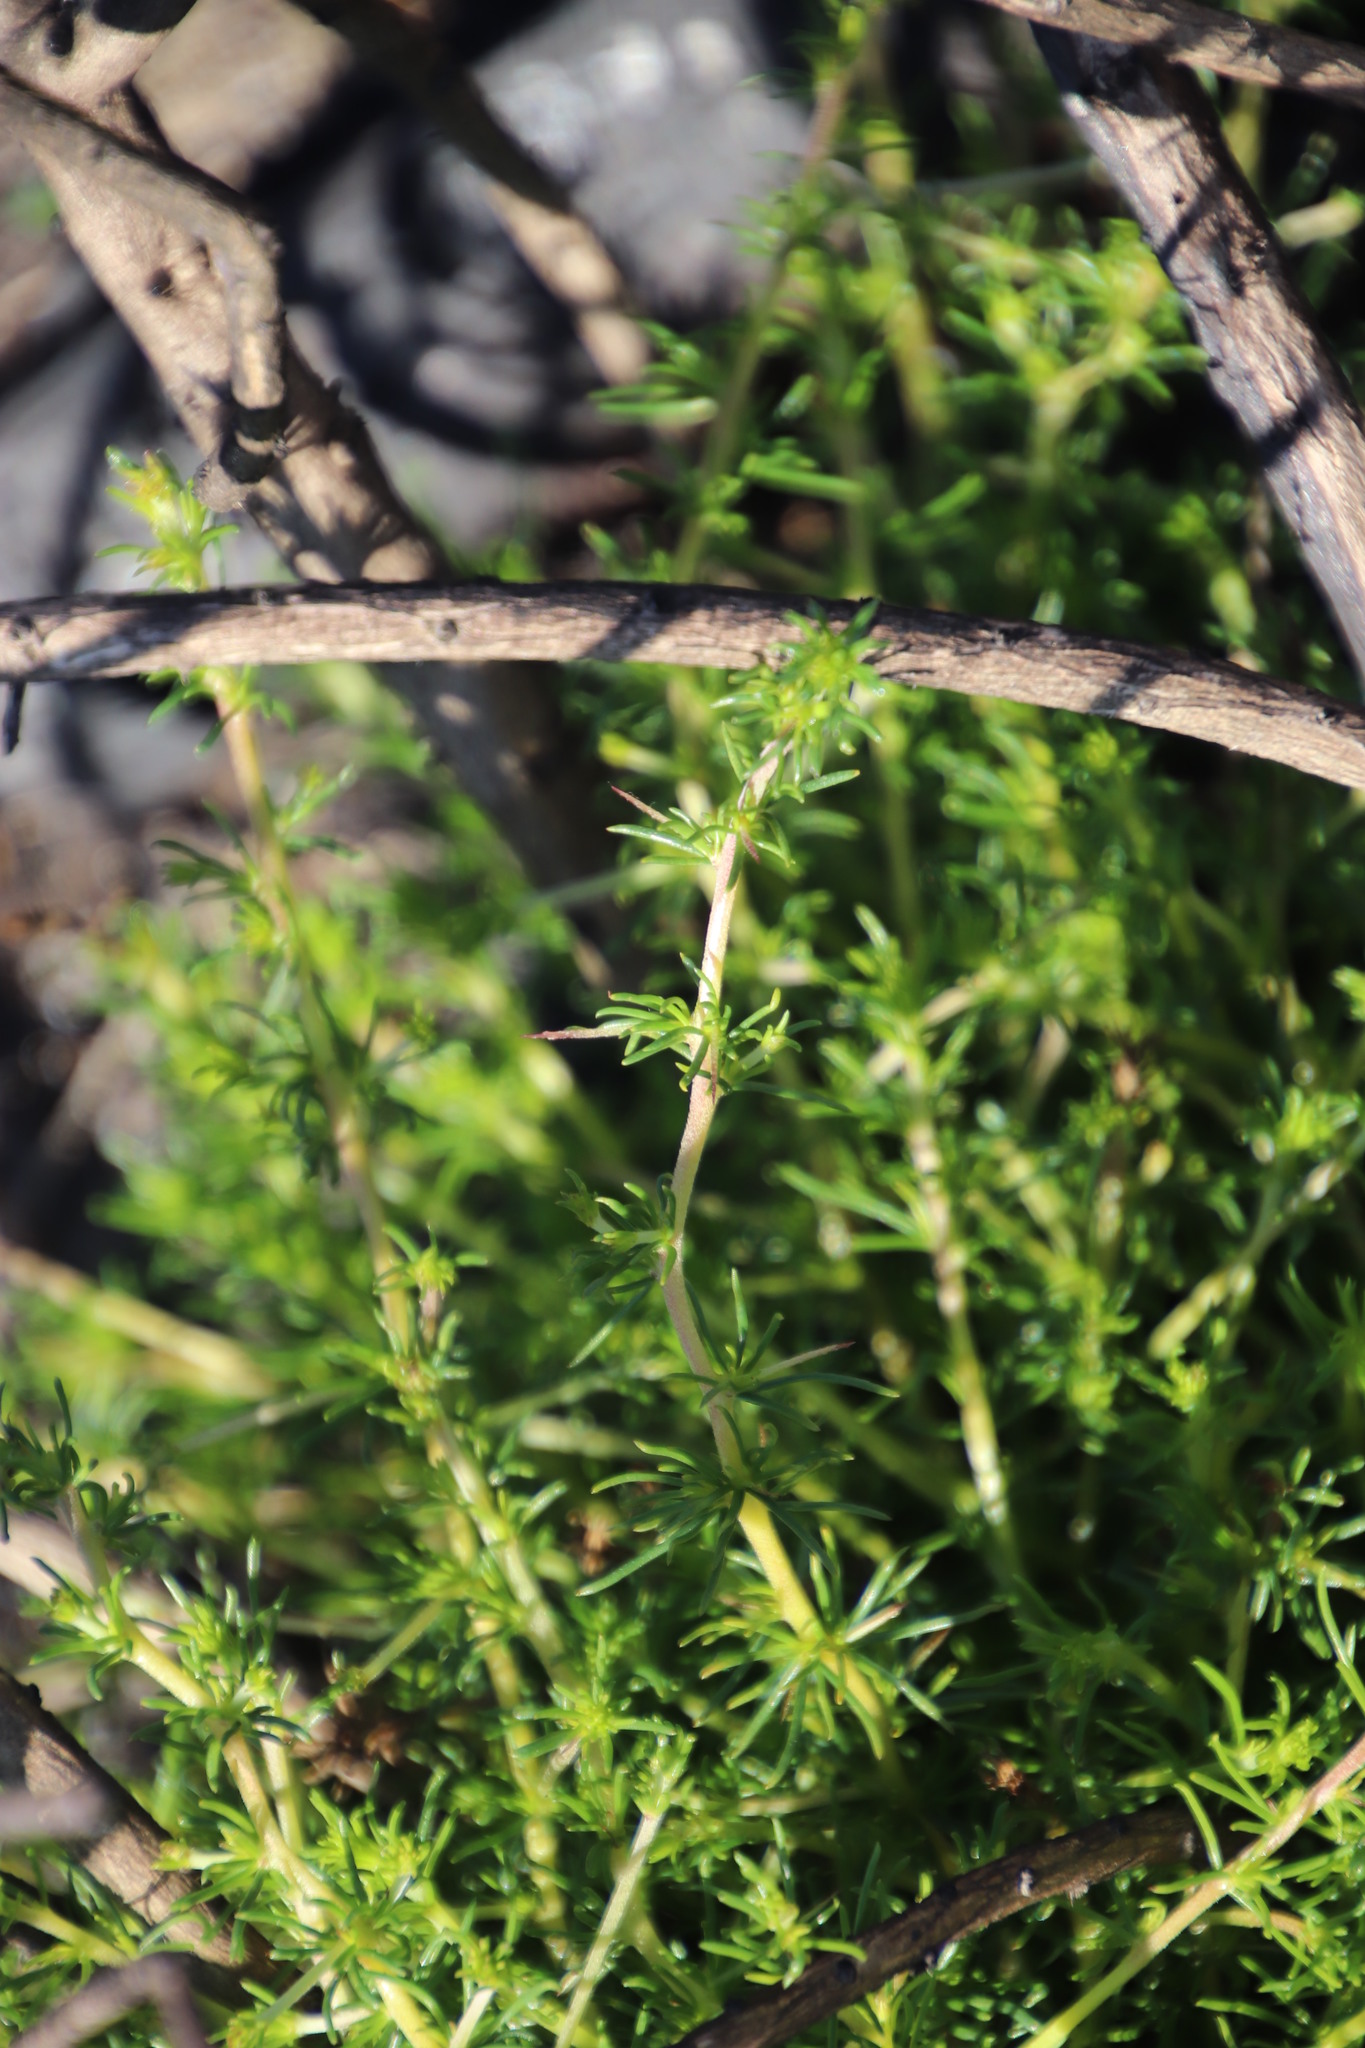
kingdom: Plantae
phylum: Tracheophyta
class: Magnoliopsida
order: Fabales
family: Fabaceae
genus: Aspalathus
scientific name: Aspalathus spinosa
